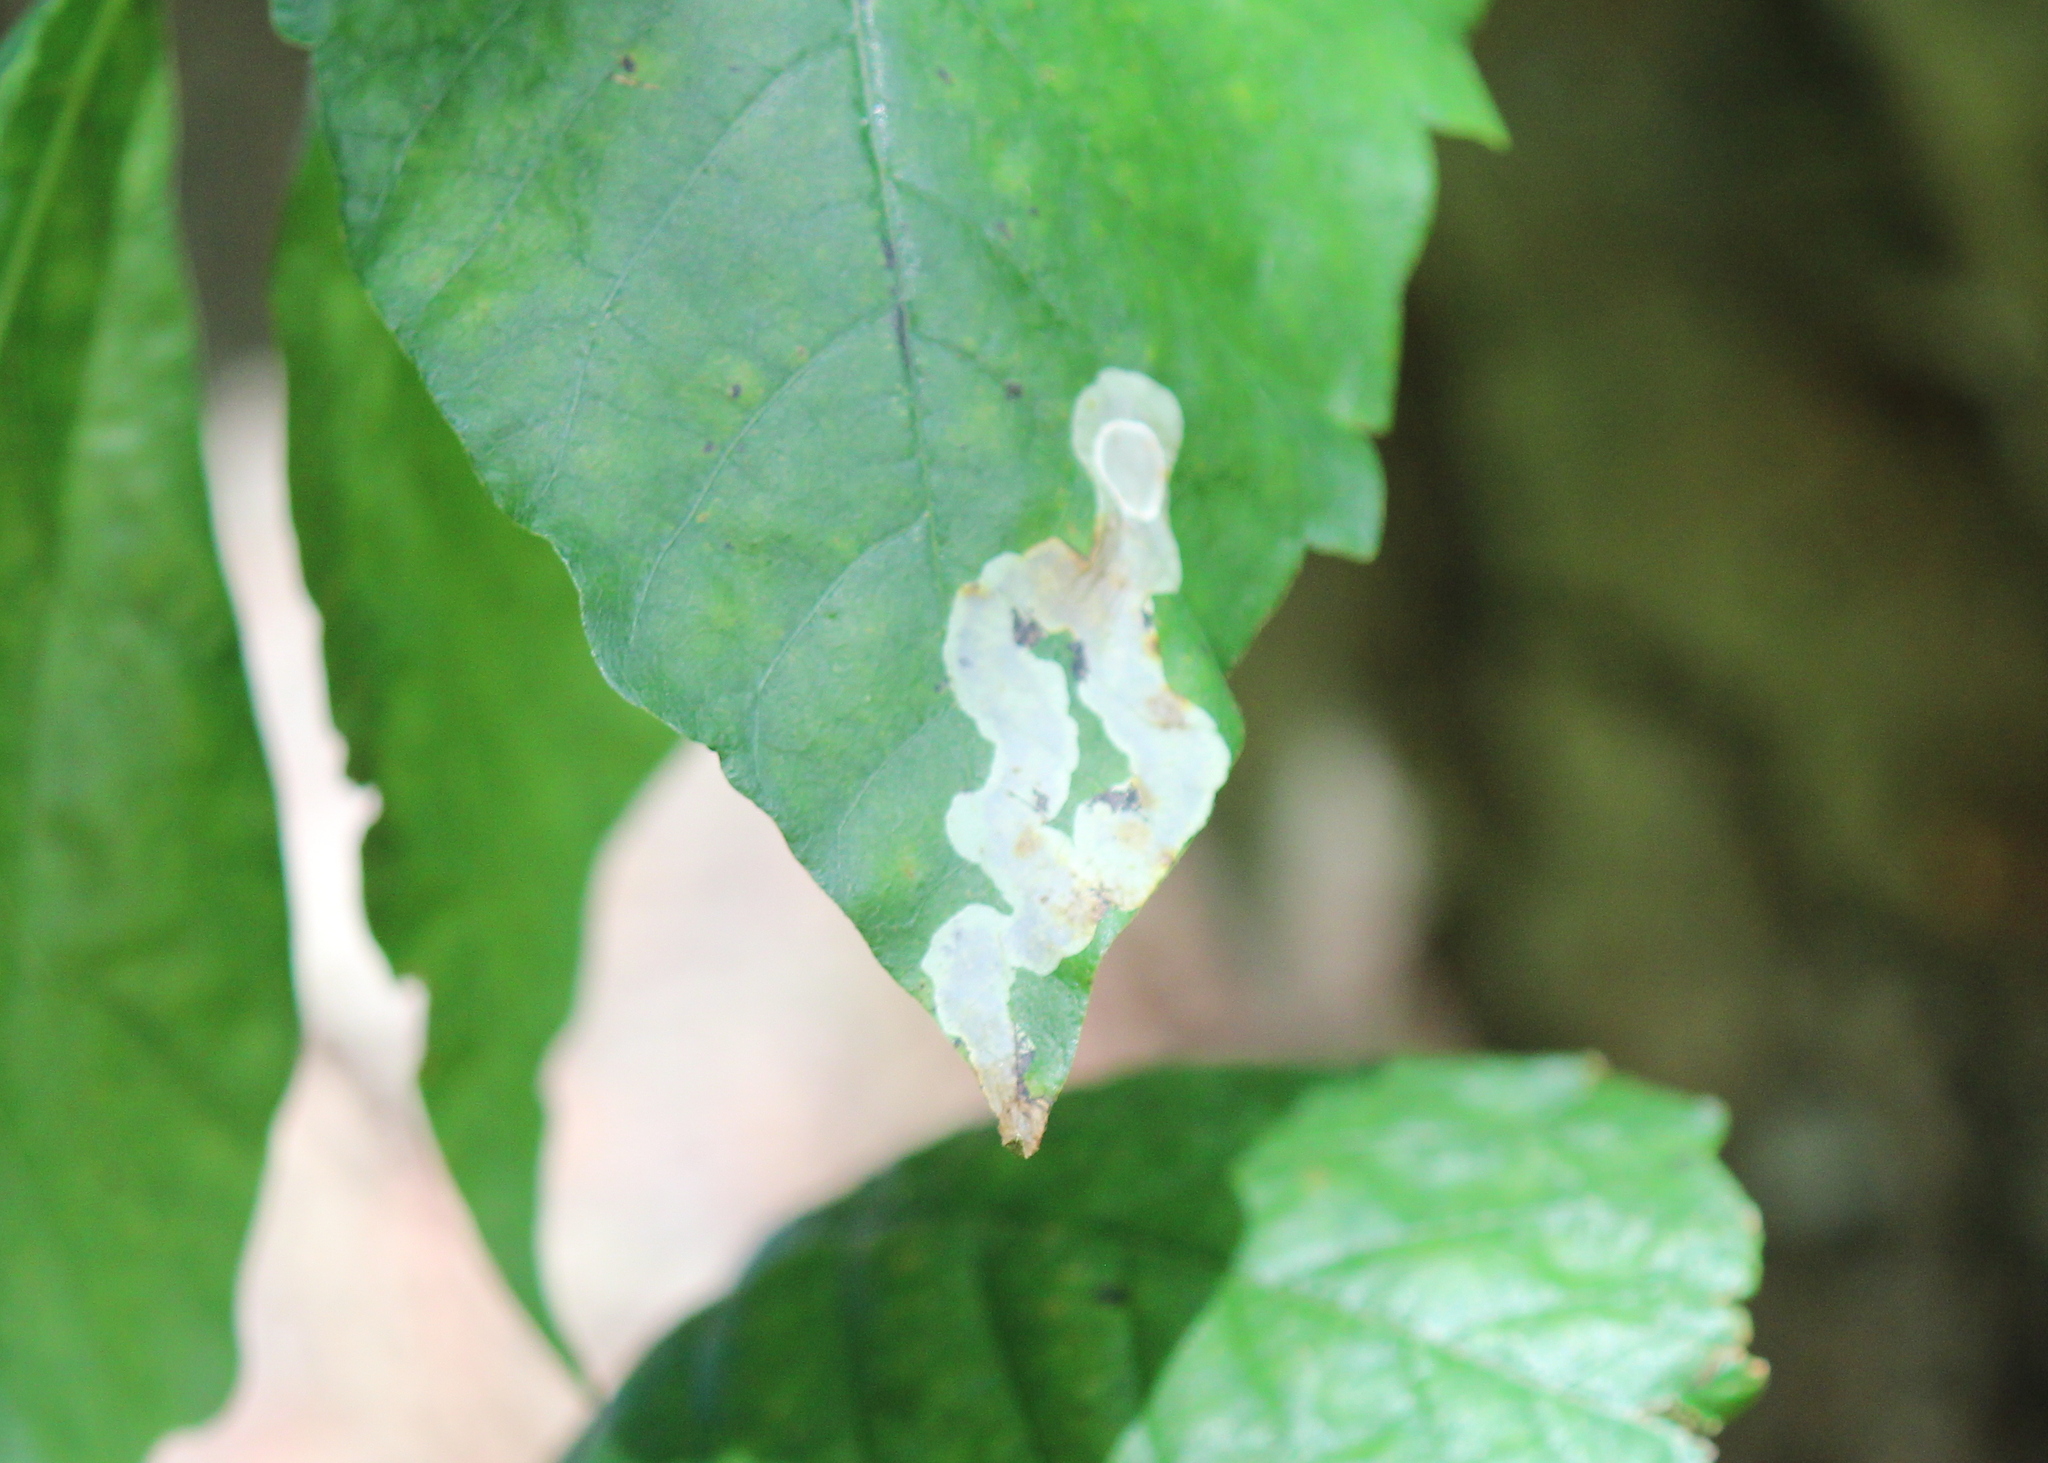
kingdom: Animalia
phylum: Arthropoda
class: Insecta
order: Lepidoptera
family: Gracillariidae
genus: Cameraria
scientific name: Cameraria guttifinitella
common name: Poison ivy leaf-miner moth
